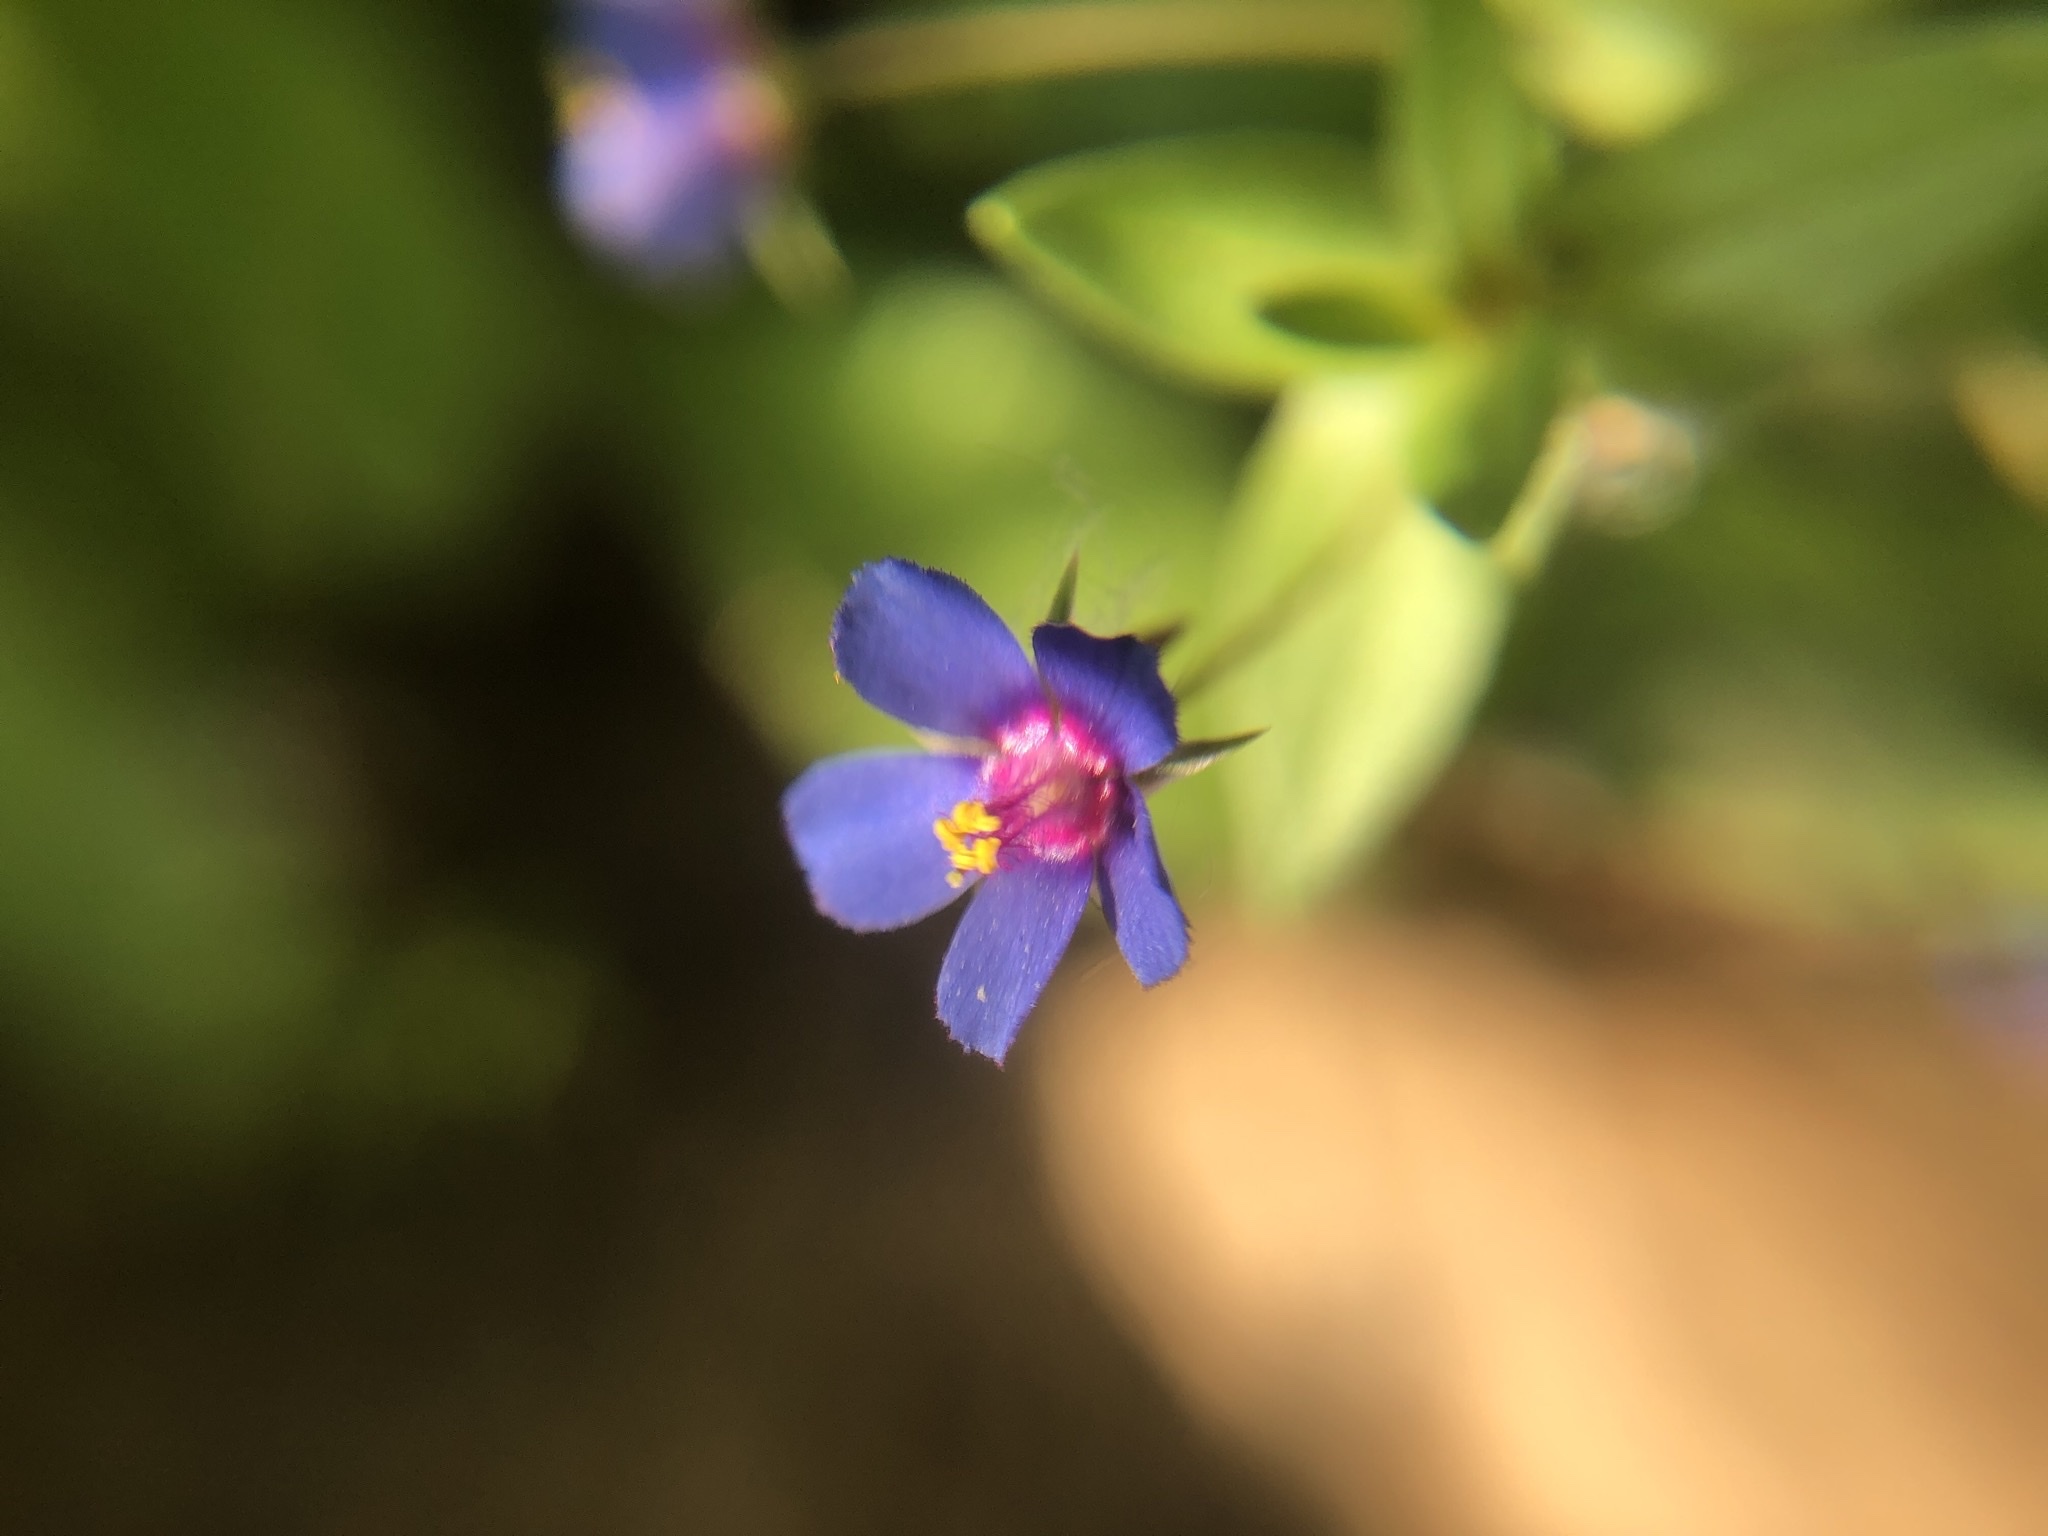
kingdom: Plantae
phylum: Tracheophyta
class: Magnoliopsida
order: Ericales
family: Primulaceae
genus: Lysimachia
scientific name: Lysimachia loeflingii
